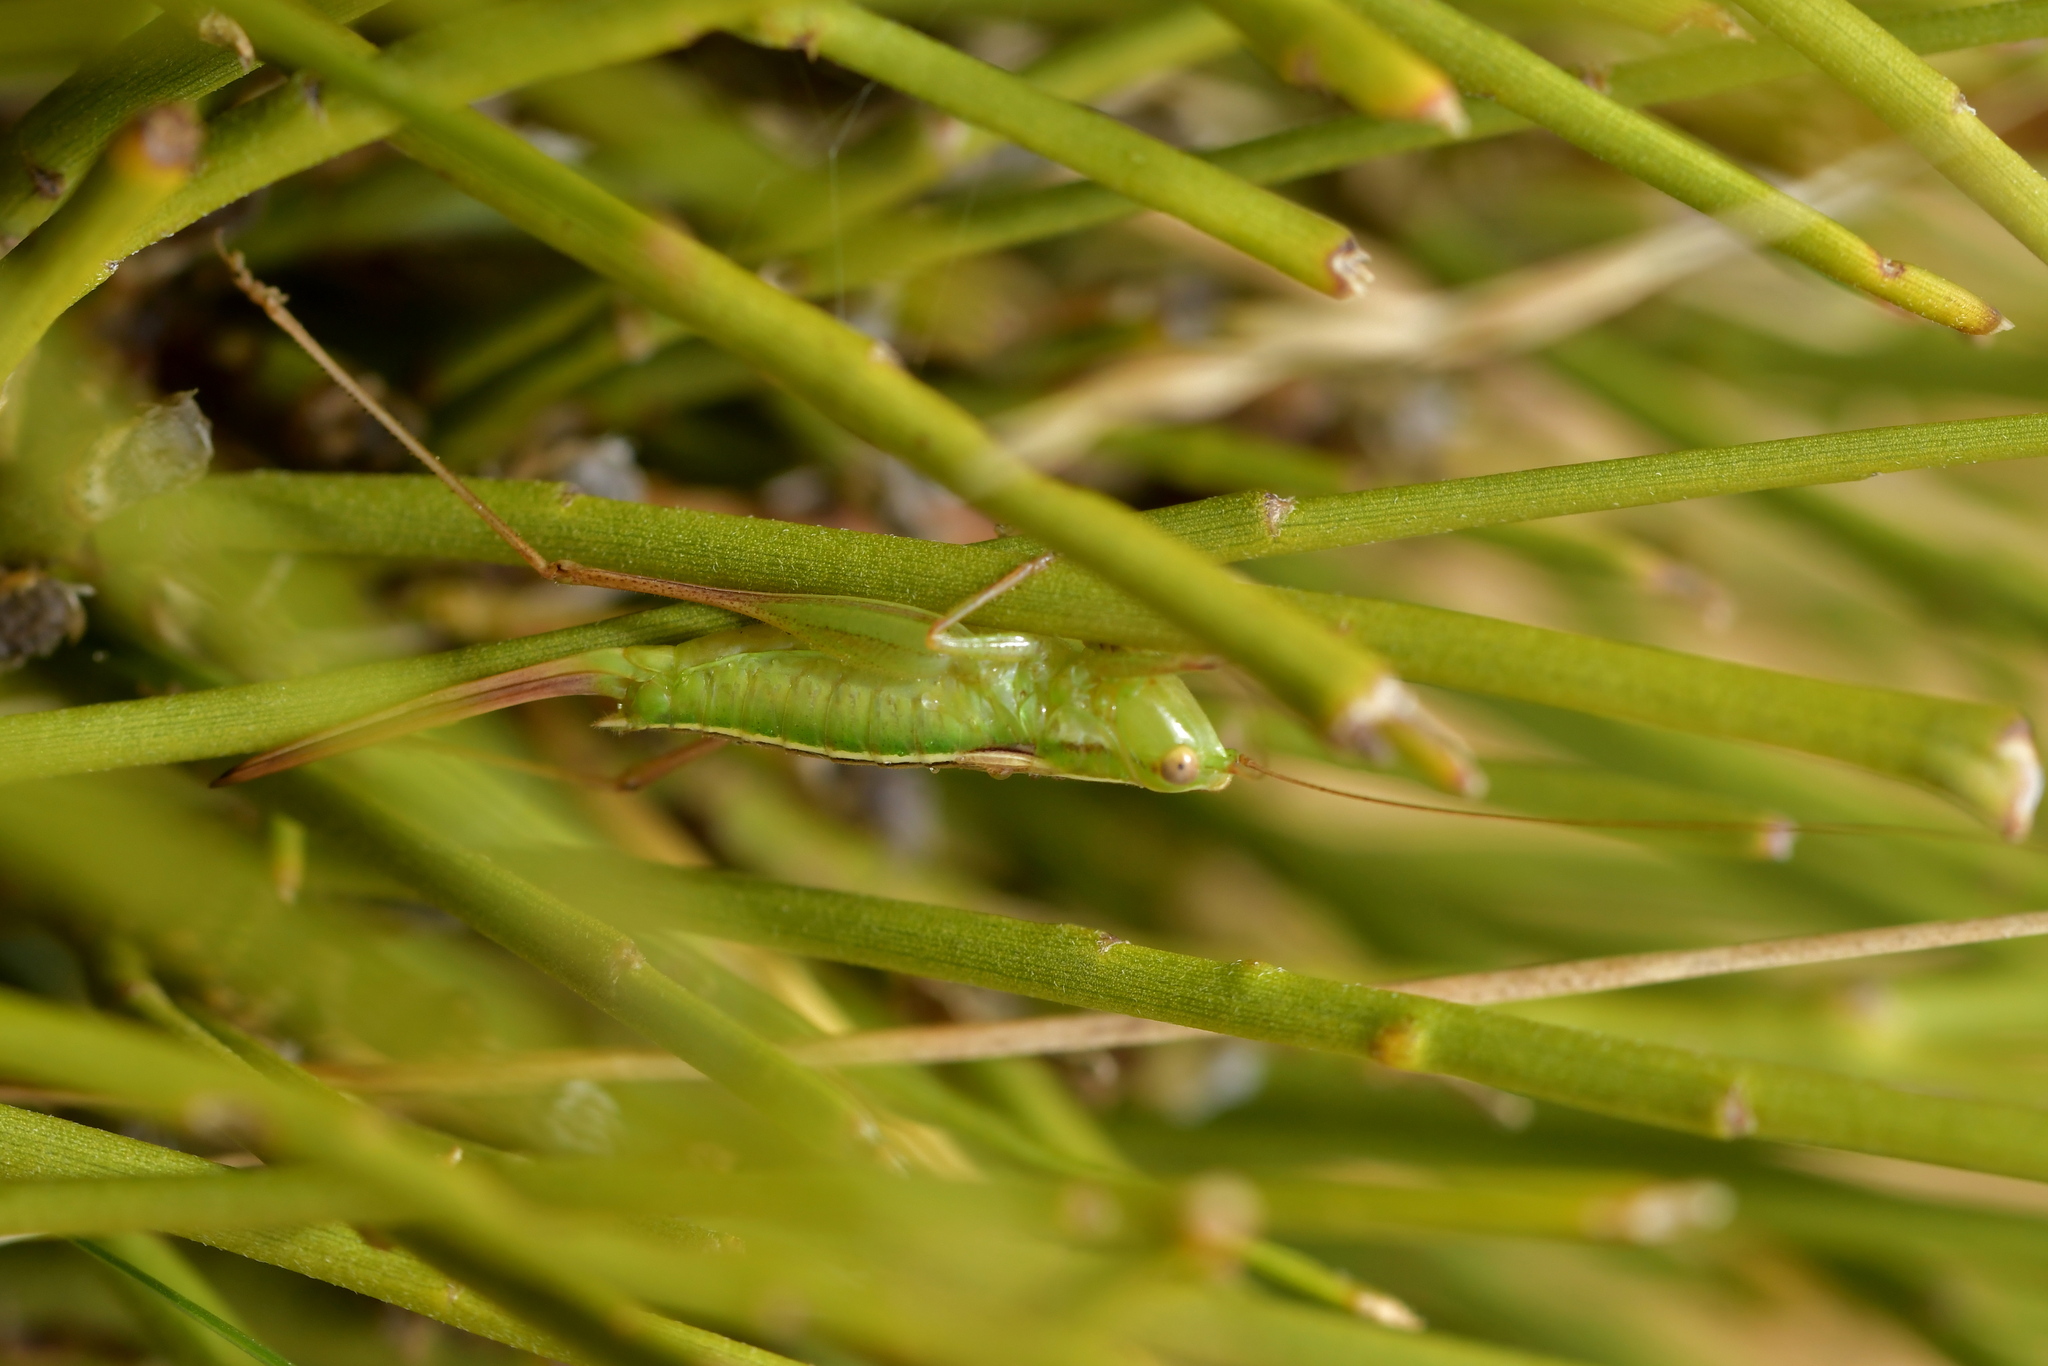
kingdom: Animalia
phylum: Arthropoda
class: Insecta
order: Orthoptera
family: Tettigoniidae
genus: Conocephalus
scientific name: Conocephalus bilineatus
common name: Small meadow katydid
